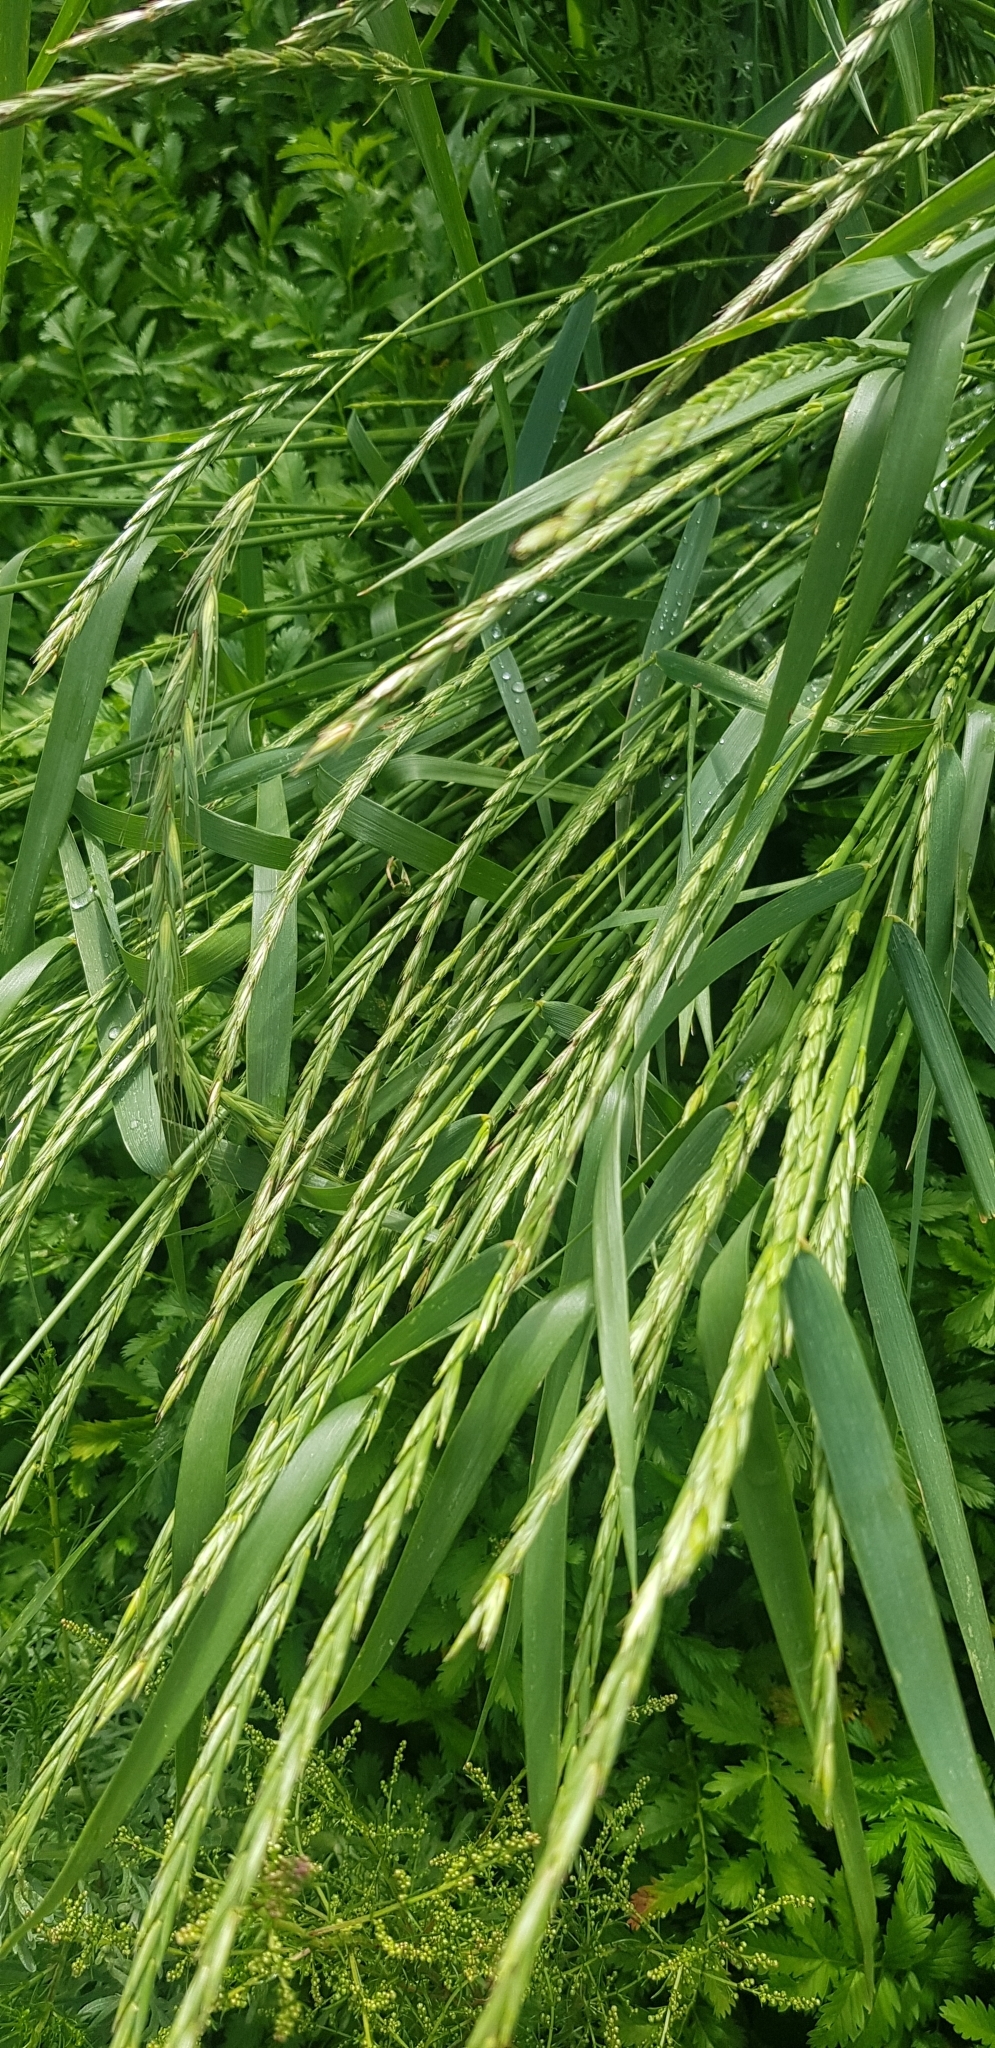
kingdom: Plantae
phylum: Tracheophyta
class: Liliopsida
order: Poales
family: Poaceae
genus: Elymus
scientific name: Elymus repens
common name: Quackgrass
